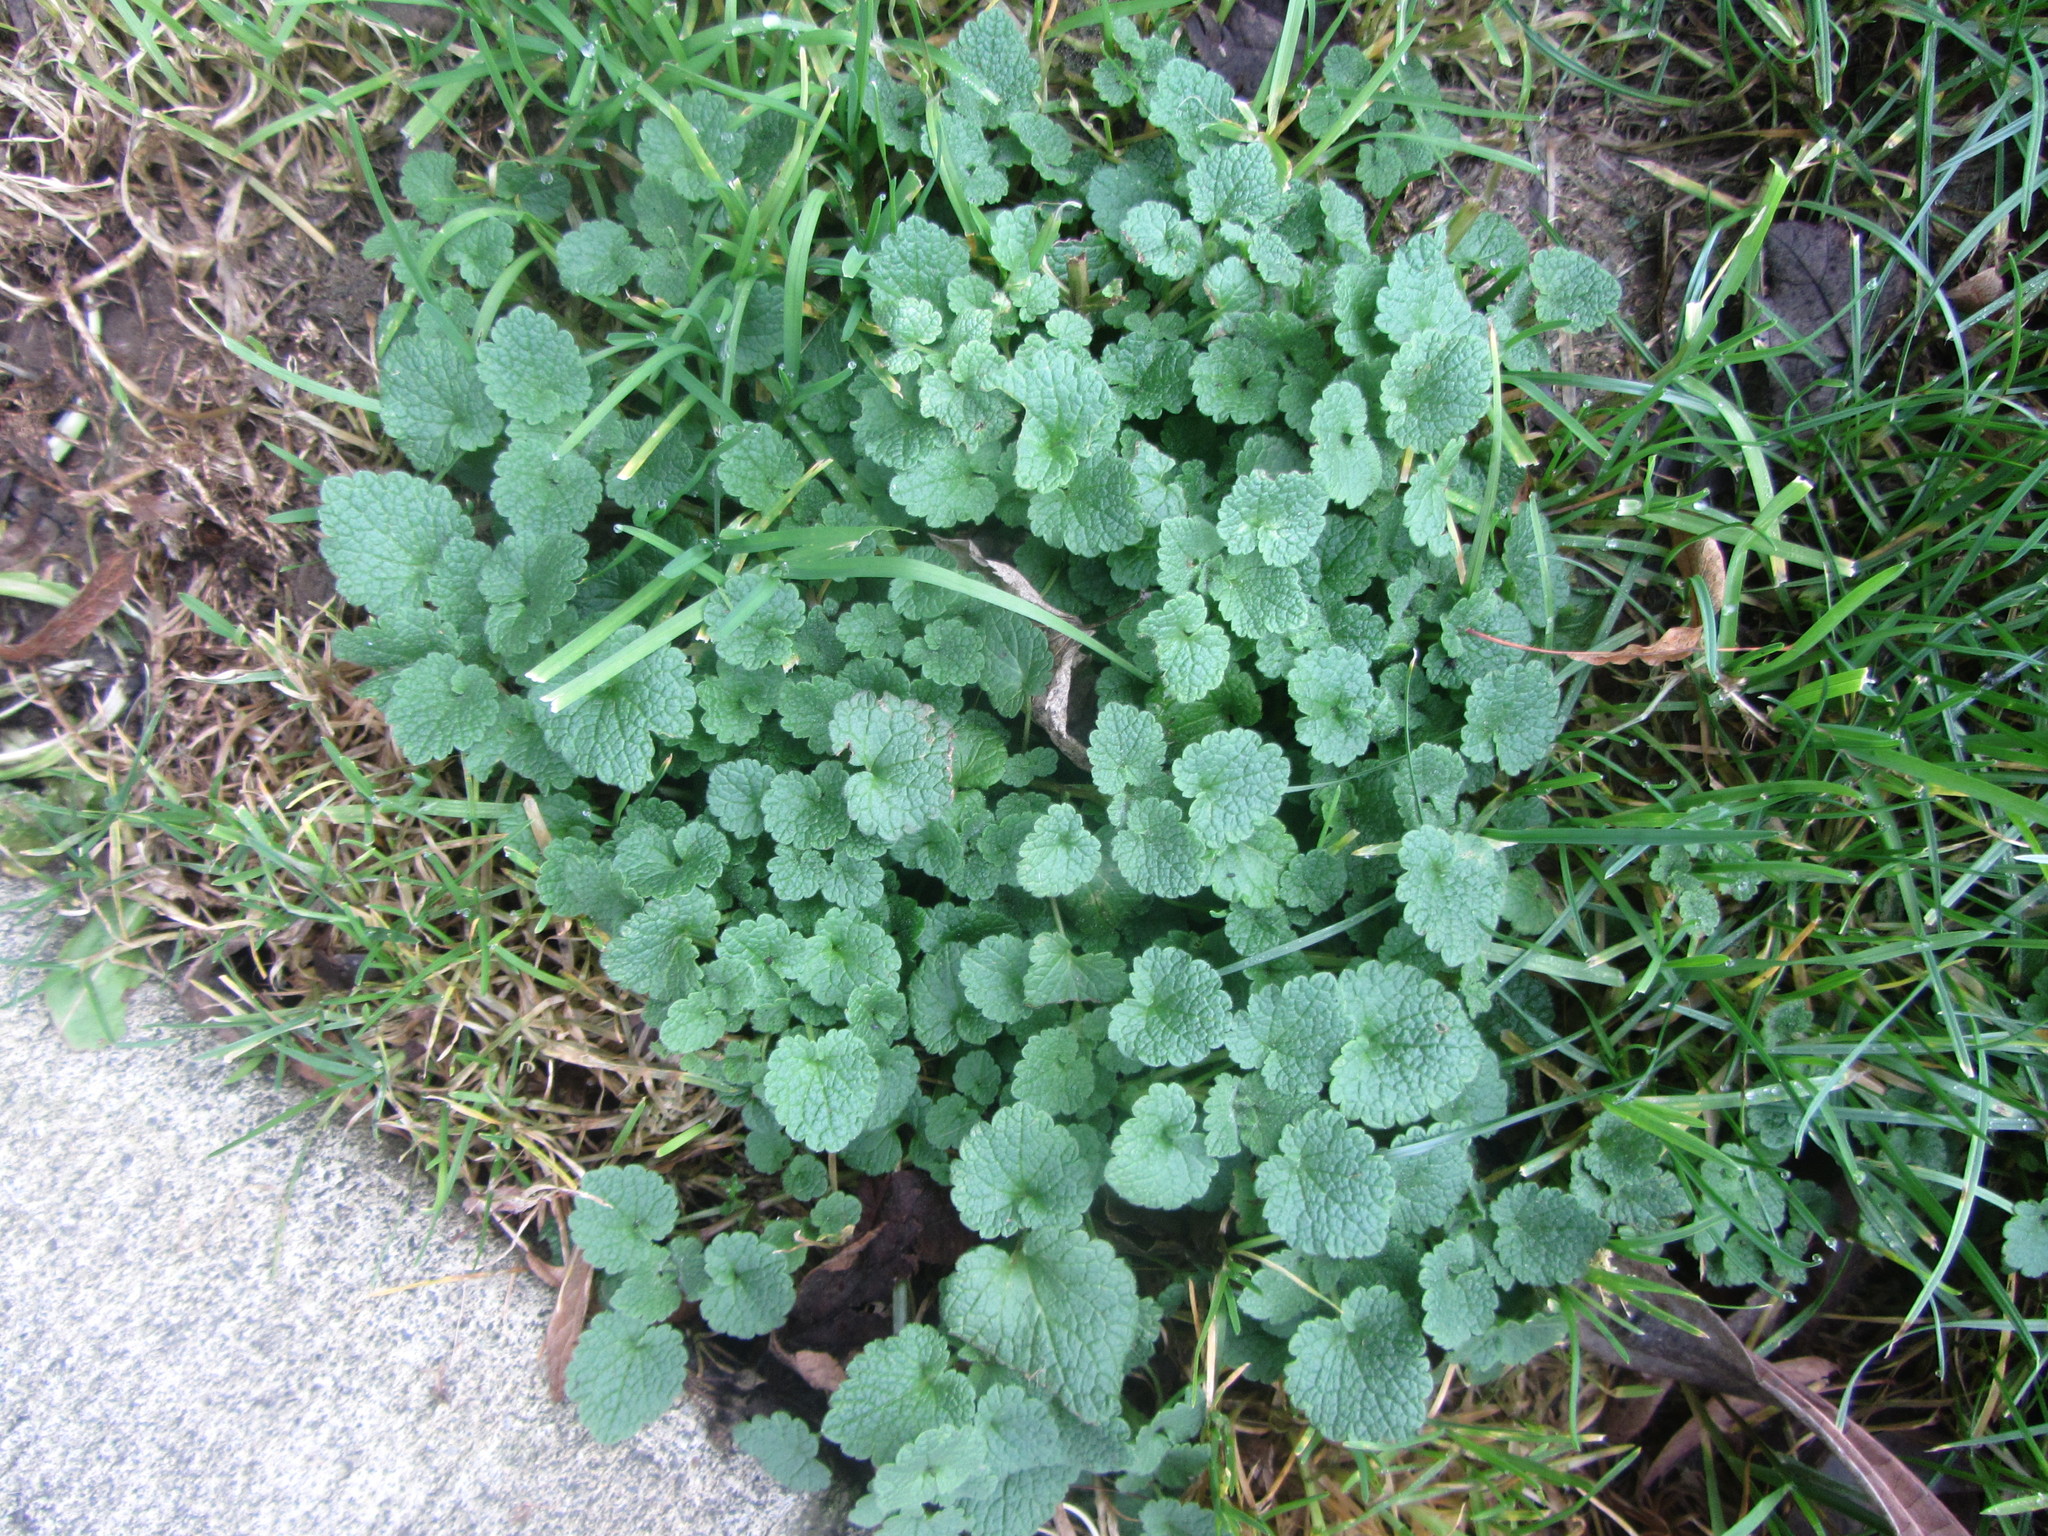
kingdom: Plantae
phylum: Tracheophyta
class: Magnoliopsida
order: Lamiales
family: Lamiaceae
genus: Lamium
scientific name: Lamium purpureum
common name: Red dead-nettle
